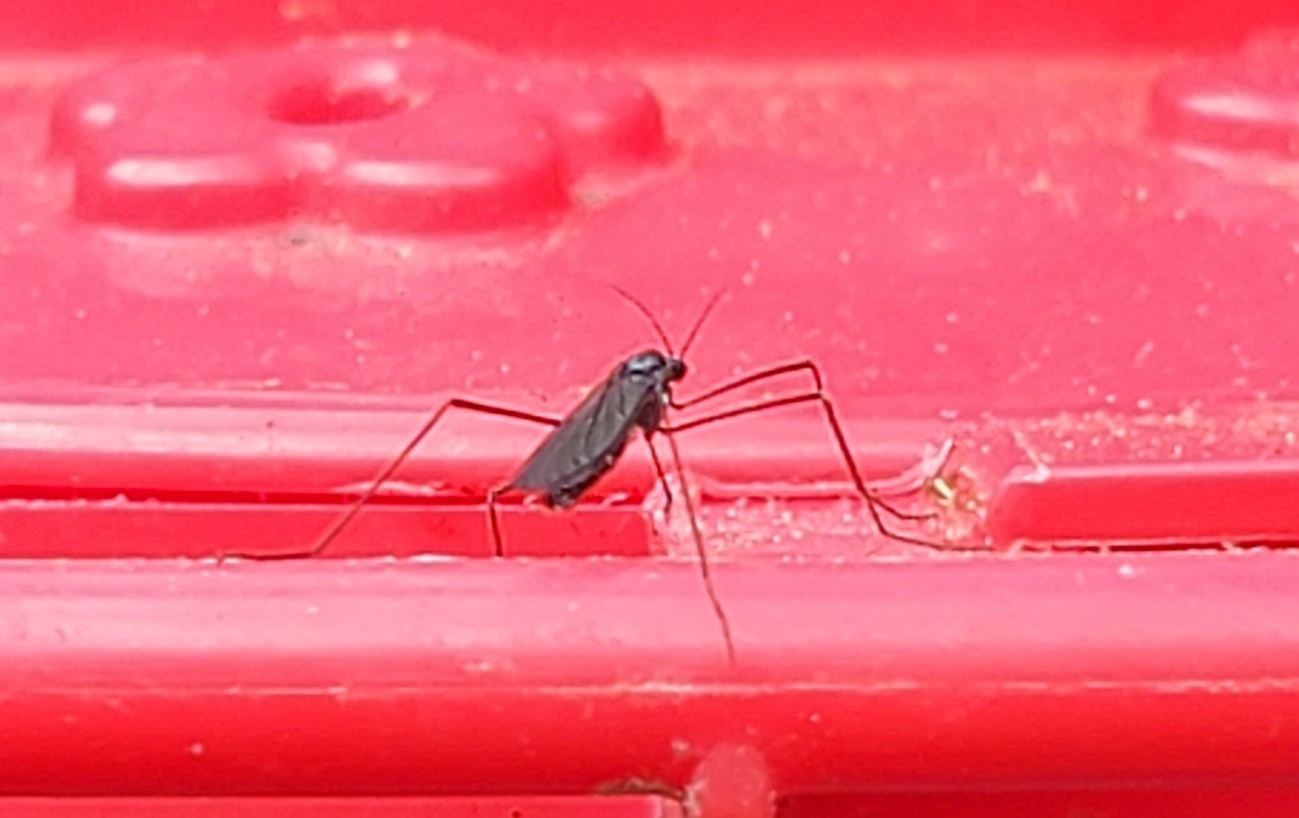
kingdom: Animalia
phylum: Arthropoda
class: Insecta
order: Diptera
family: Limoniidae
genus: Gnophomyia
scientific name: Gnophomyia tristissima
